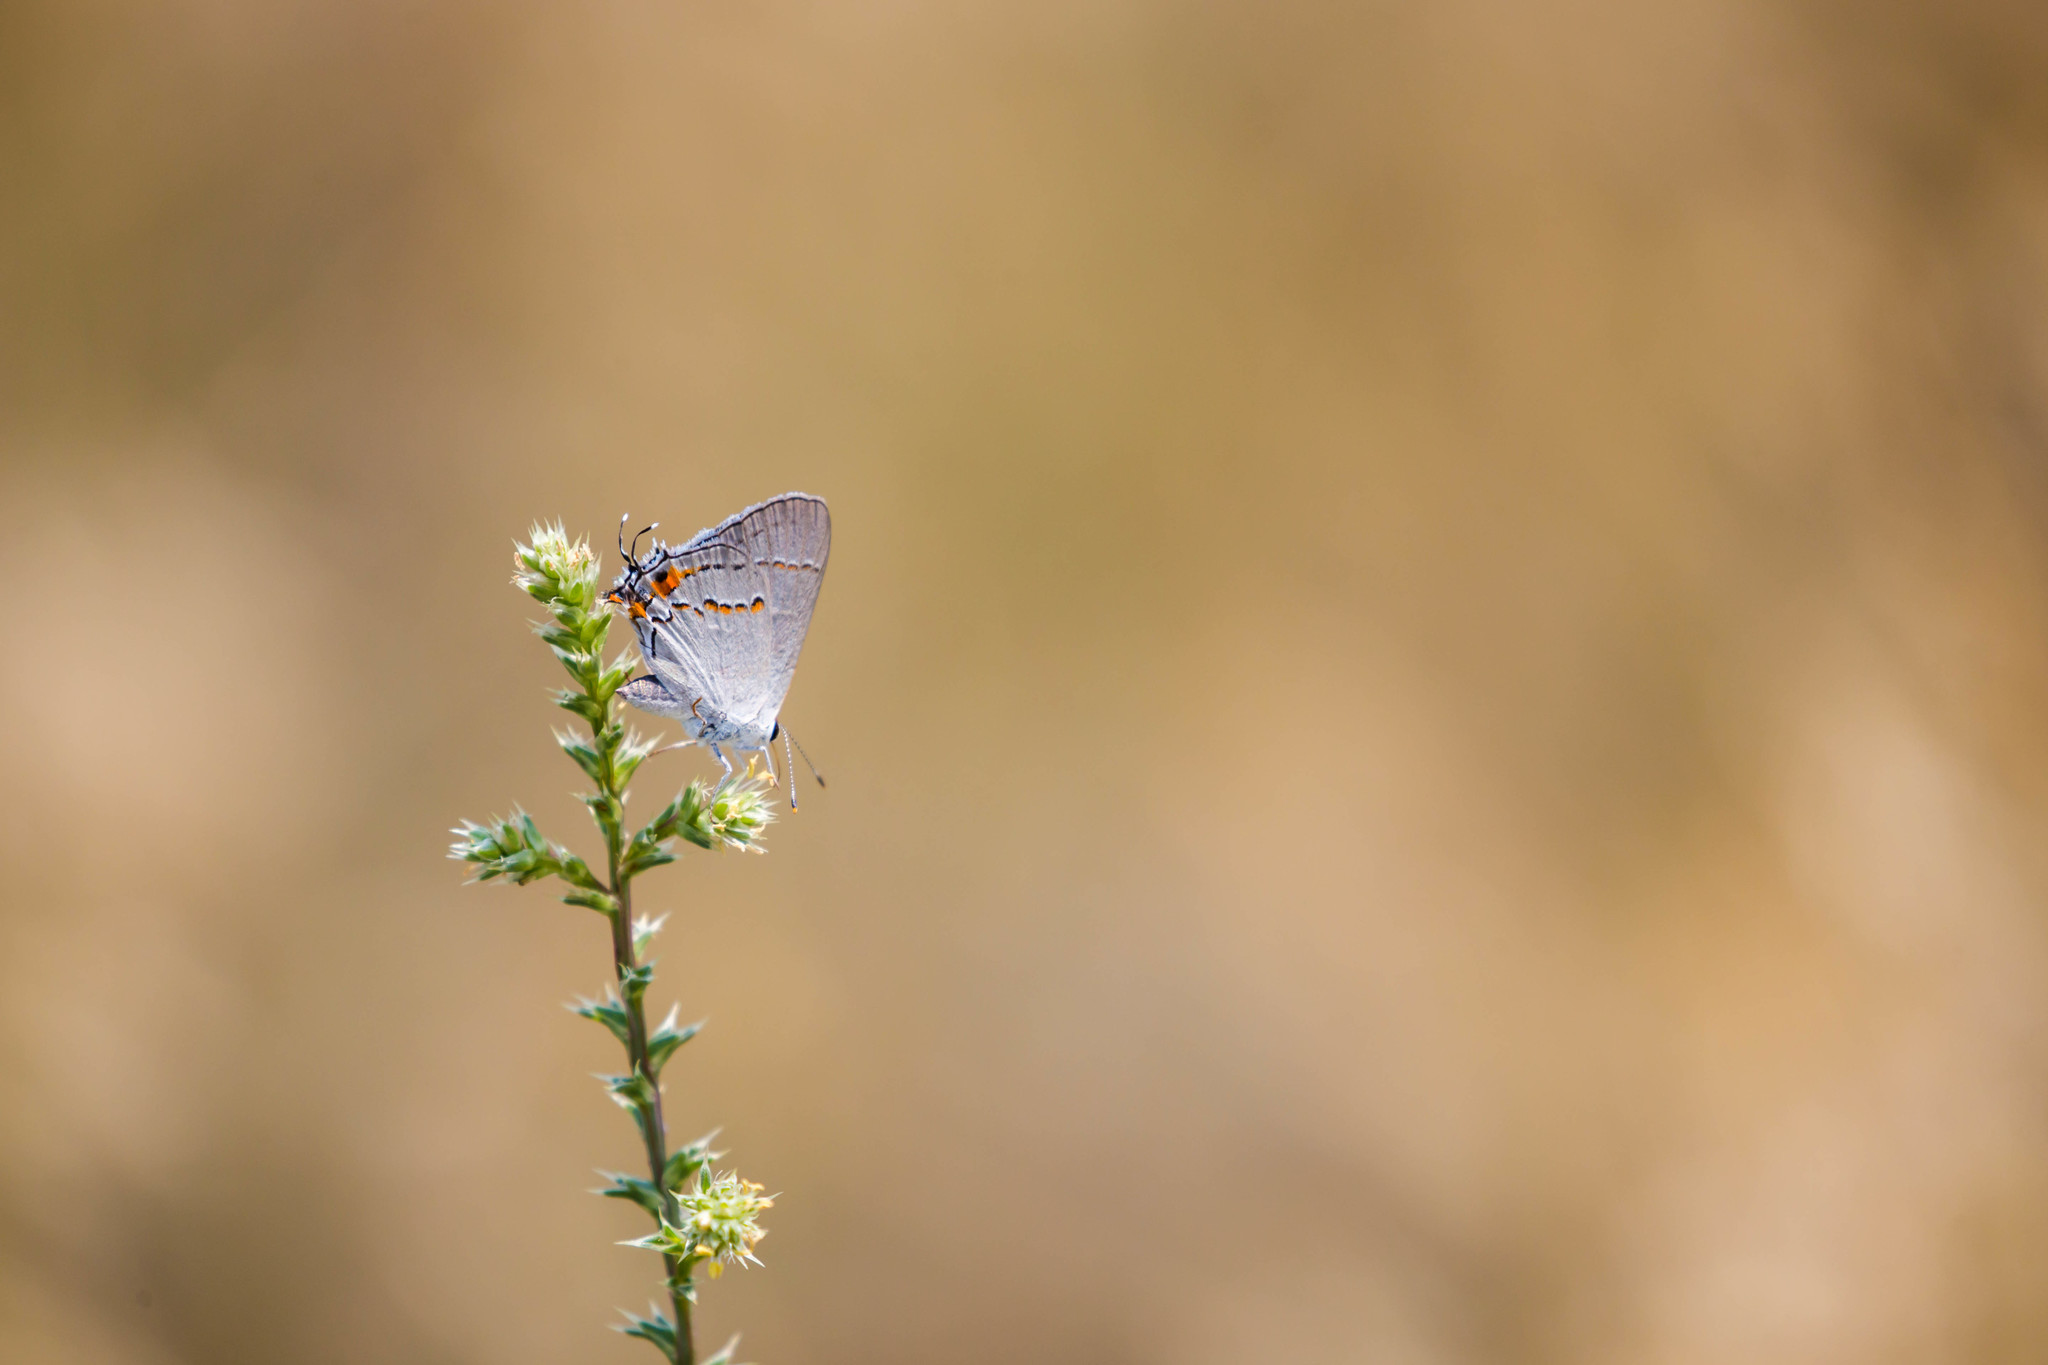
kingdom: Animalia
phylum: Arthropoda
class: Insecta
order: Lepidoptera
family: Lycaenidae
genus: Strymon
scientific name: Strymon melinus
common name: Gray hairstreak
